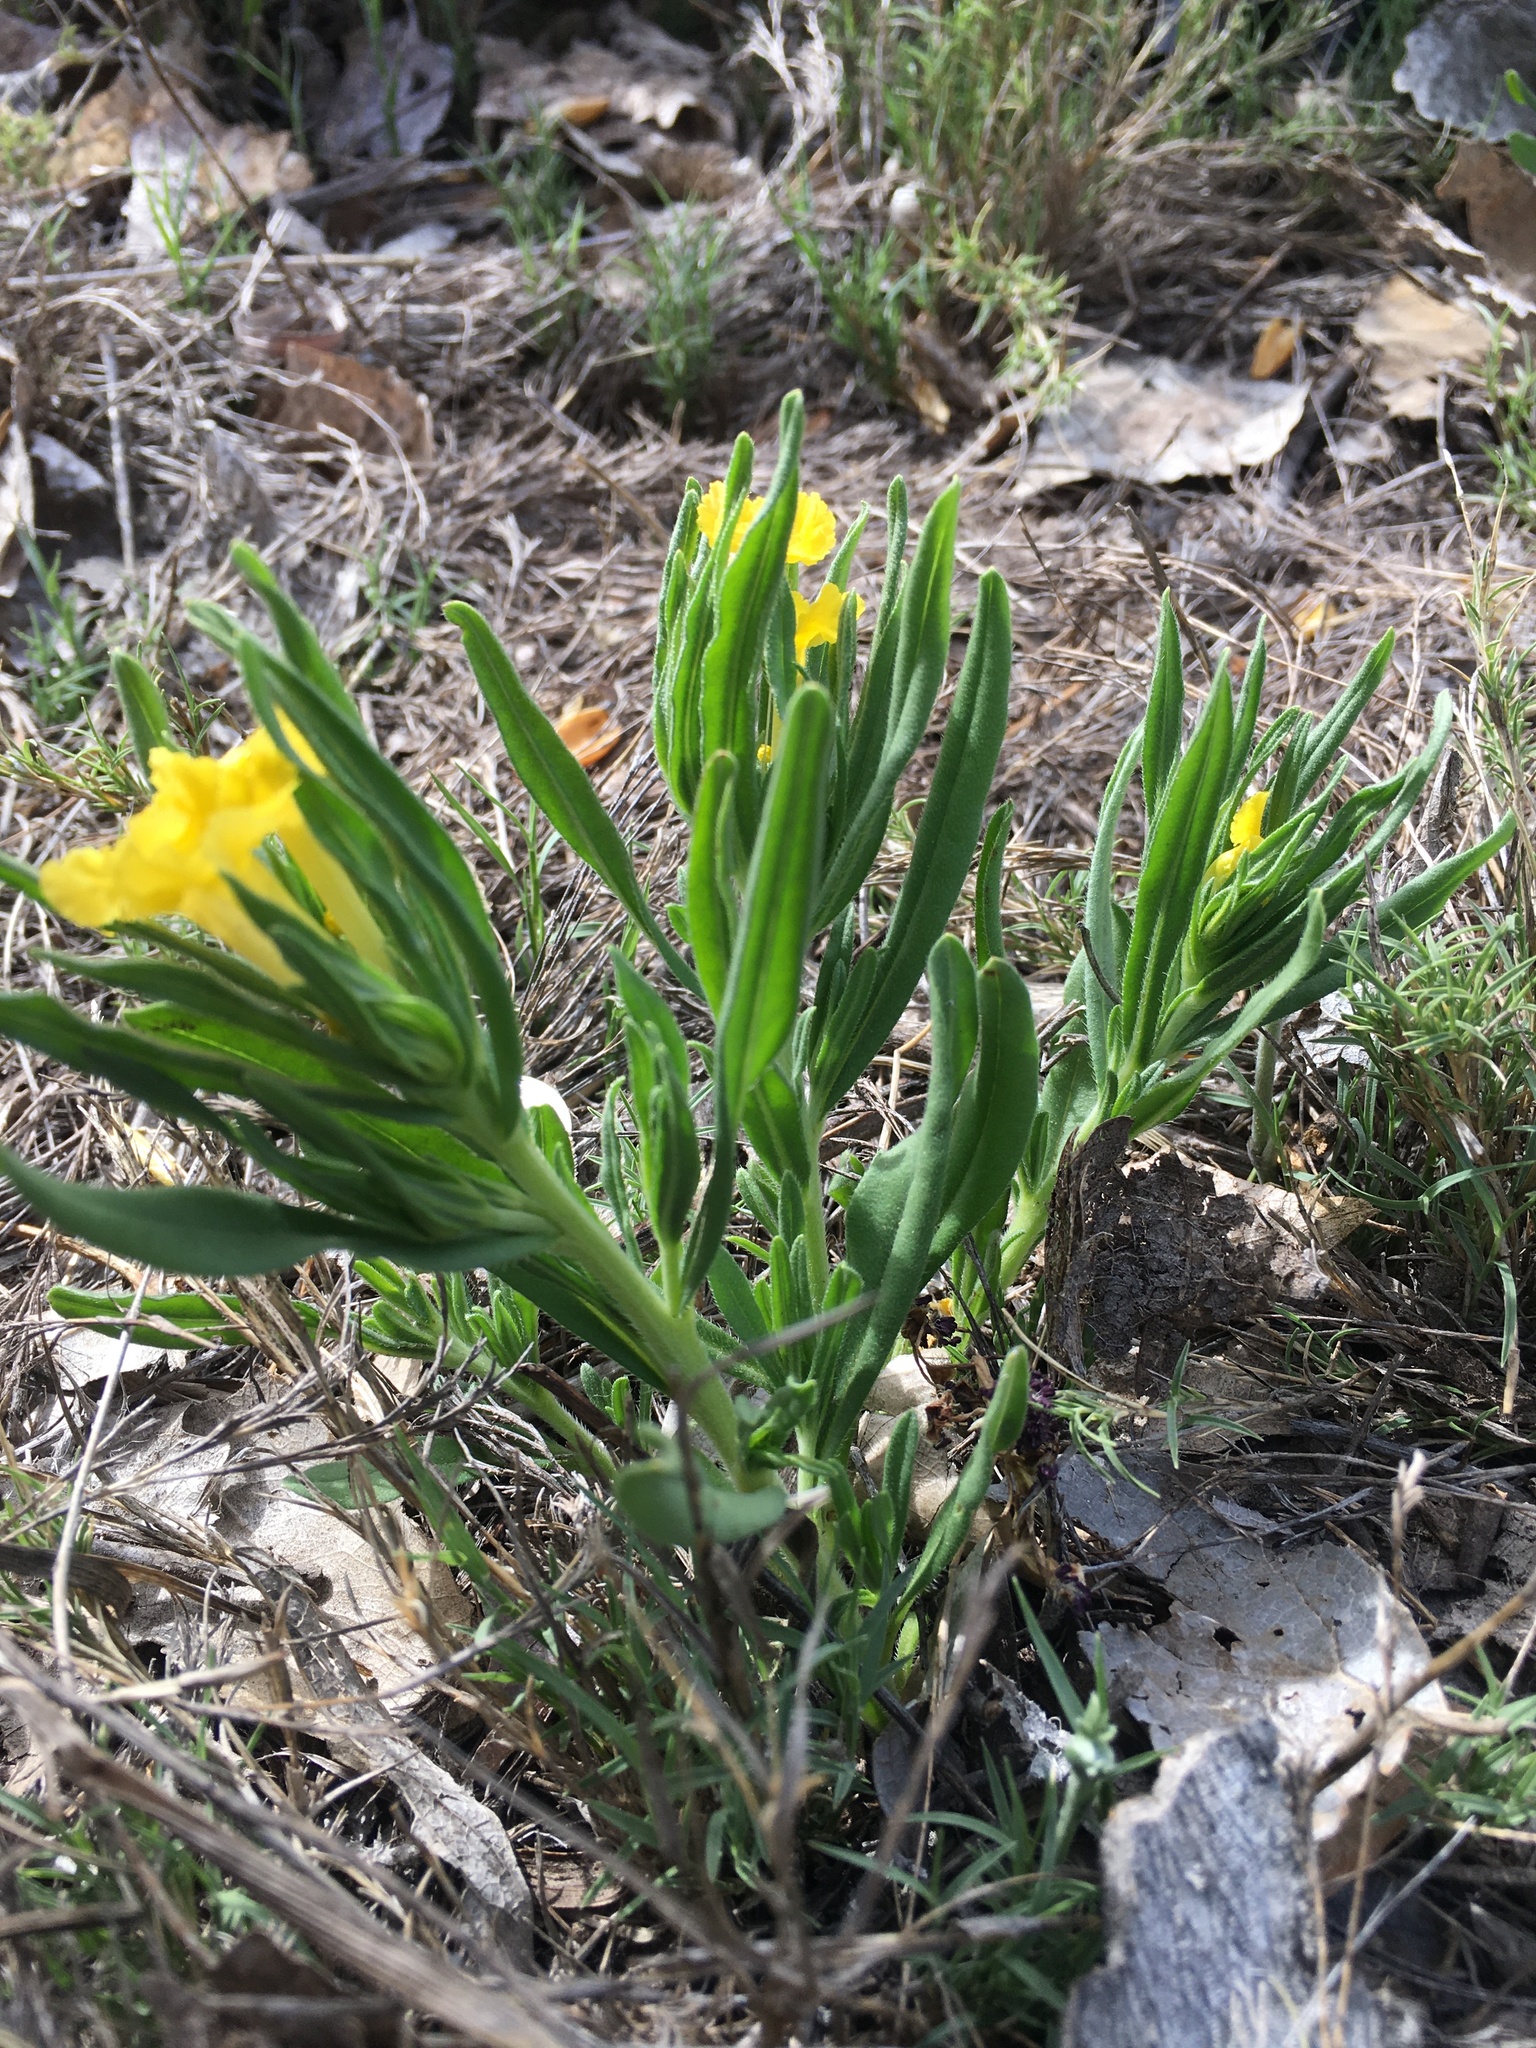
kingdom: Plantae
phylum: Tracheophyta
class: Magnoliopsida
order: Boraginales
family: Boraginaceae
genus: Lithospermum
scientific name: Lithospermum incisum
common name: Fringed gromwell
